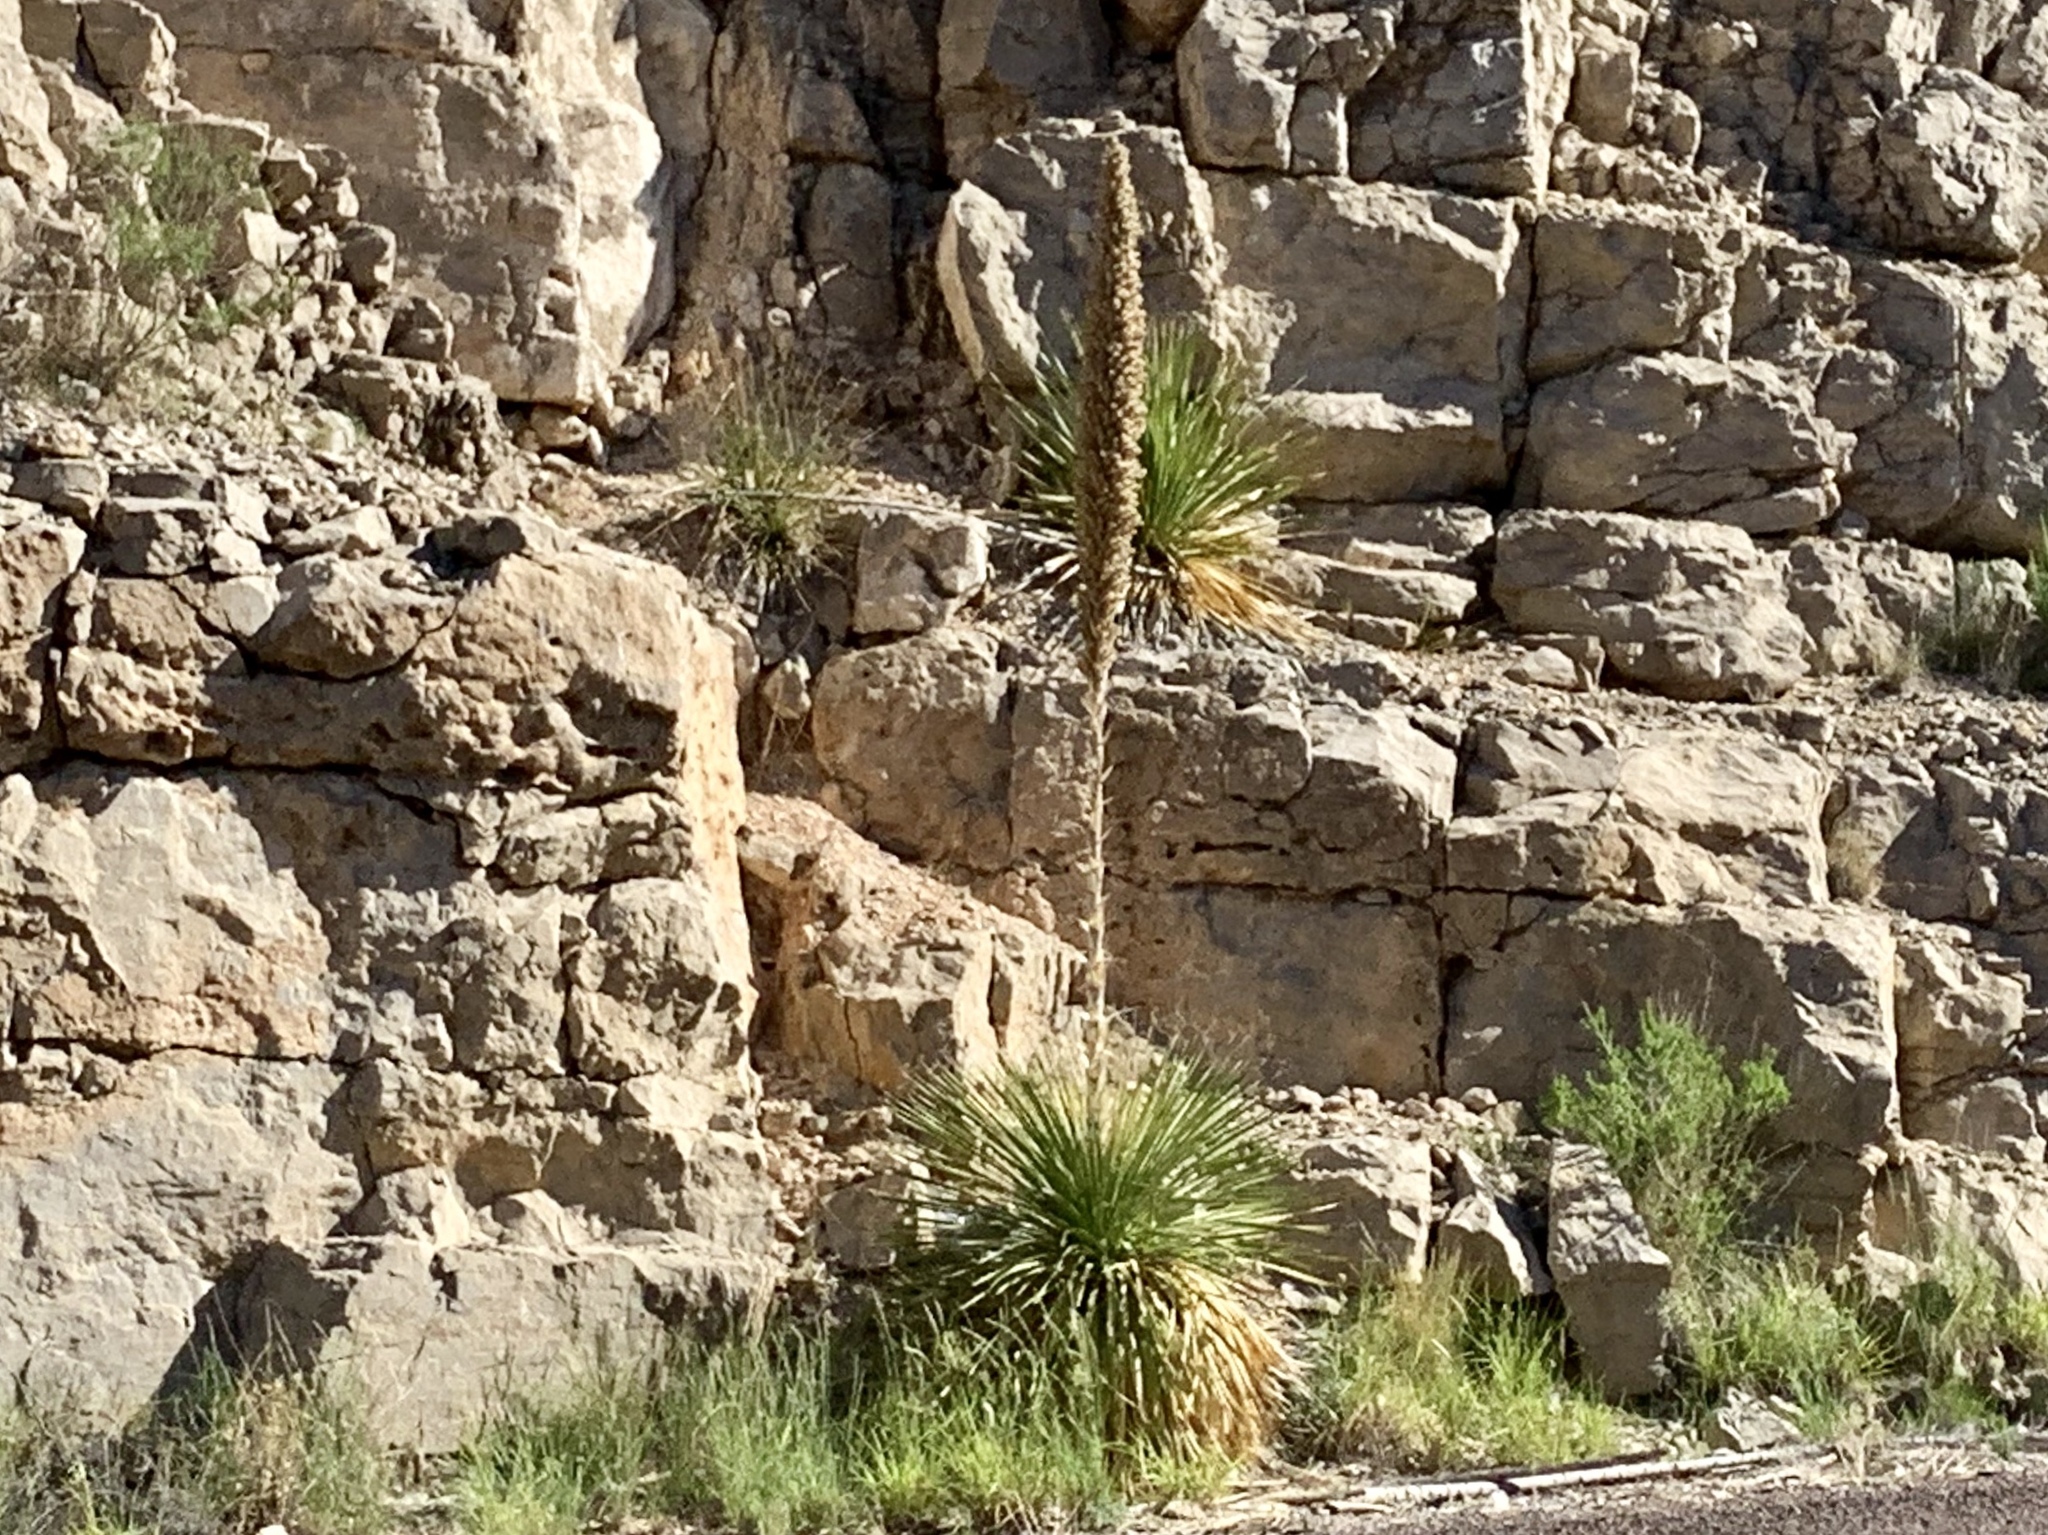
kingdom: Plantae
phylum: Tracheophyta
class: Liliopsida
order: Asparagales
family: Asparagaceae
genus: Dasylirion
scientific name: Dasylirion wheeleri
